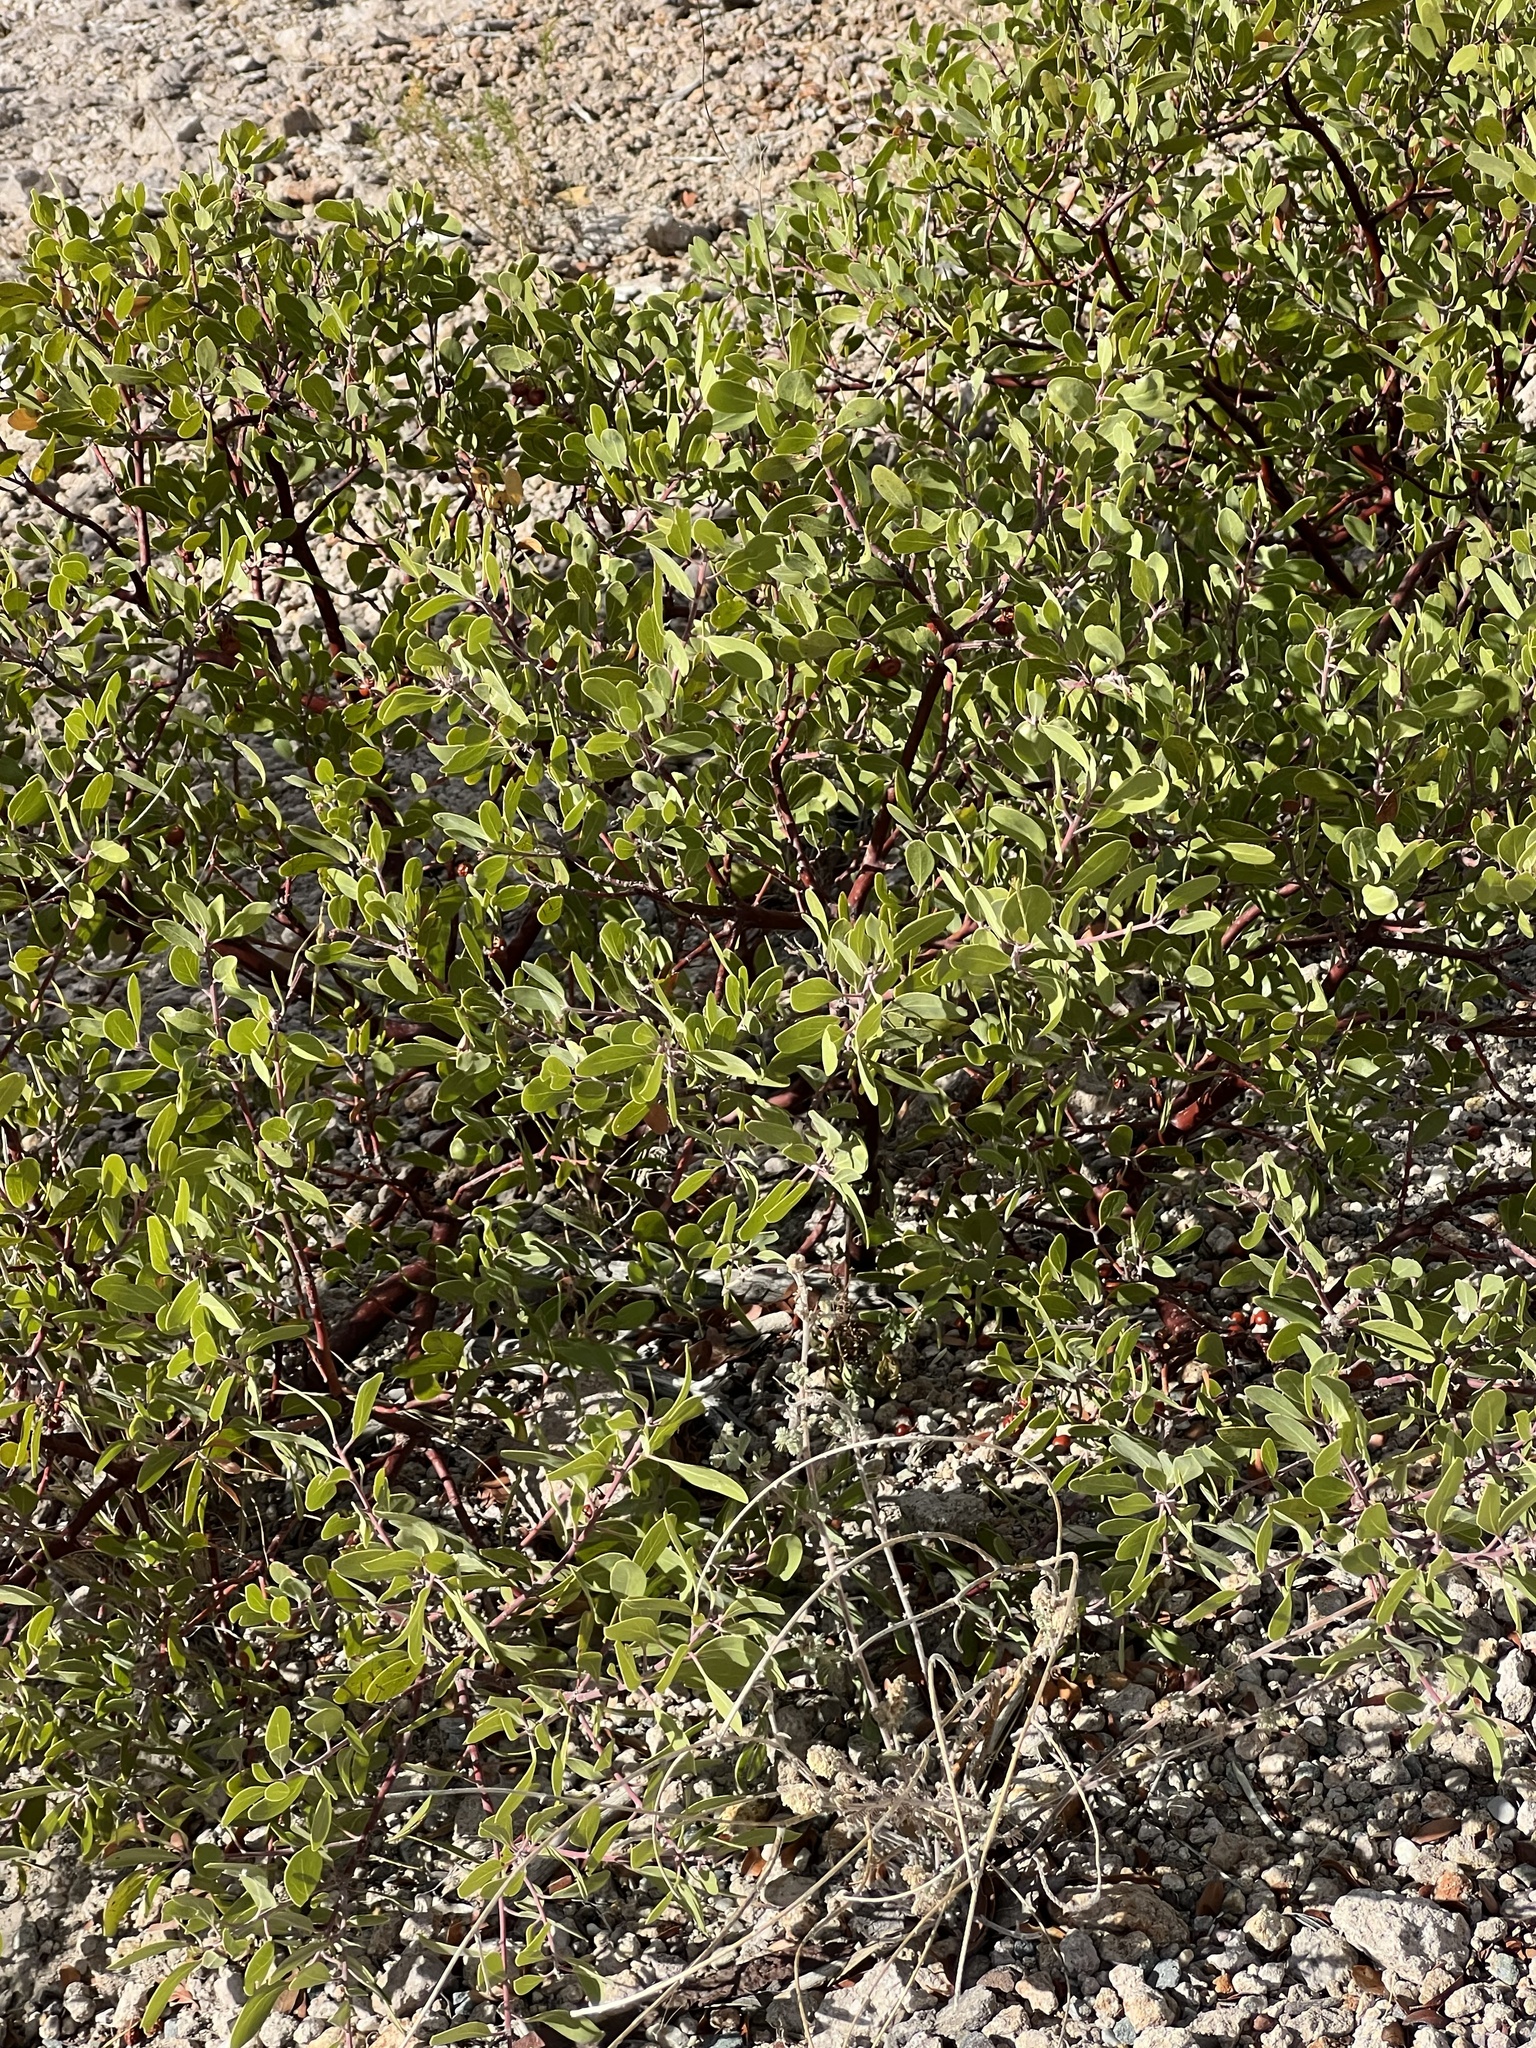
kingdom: Plantae
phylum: Tracheophyta
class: Magnoliopsida
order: Ericales
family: Ericaceae
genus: Arctostaphylos
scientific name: Arctostaphylos pungens
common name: Mexican manzanita
